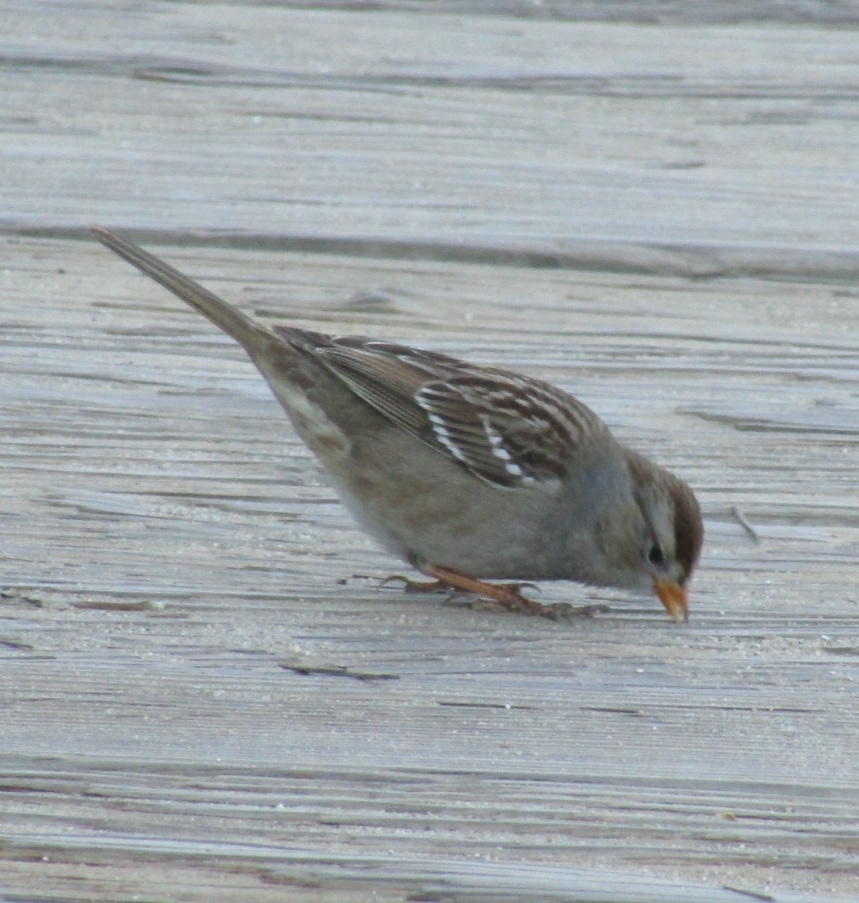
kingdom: Animalia
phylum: Chordata
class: Aves
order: Passeriformes
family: Passerellidae
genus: Zonotrichia
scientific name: Zonotrichia leucophrys
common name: White-crowned sparrow
